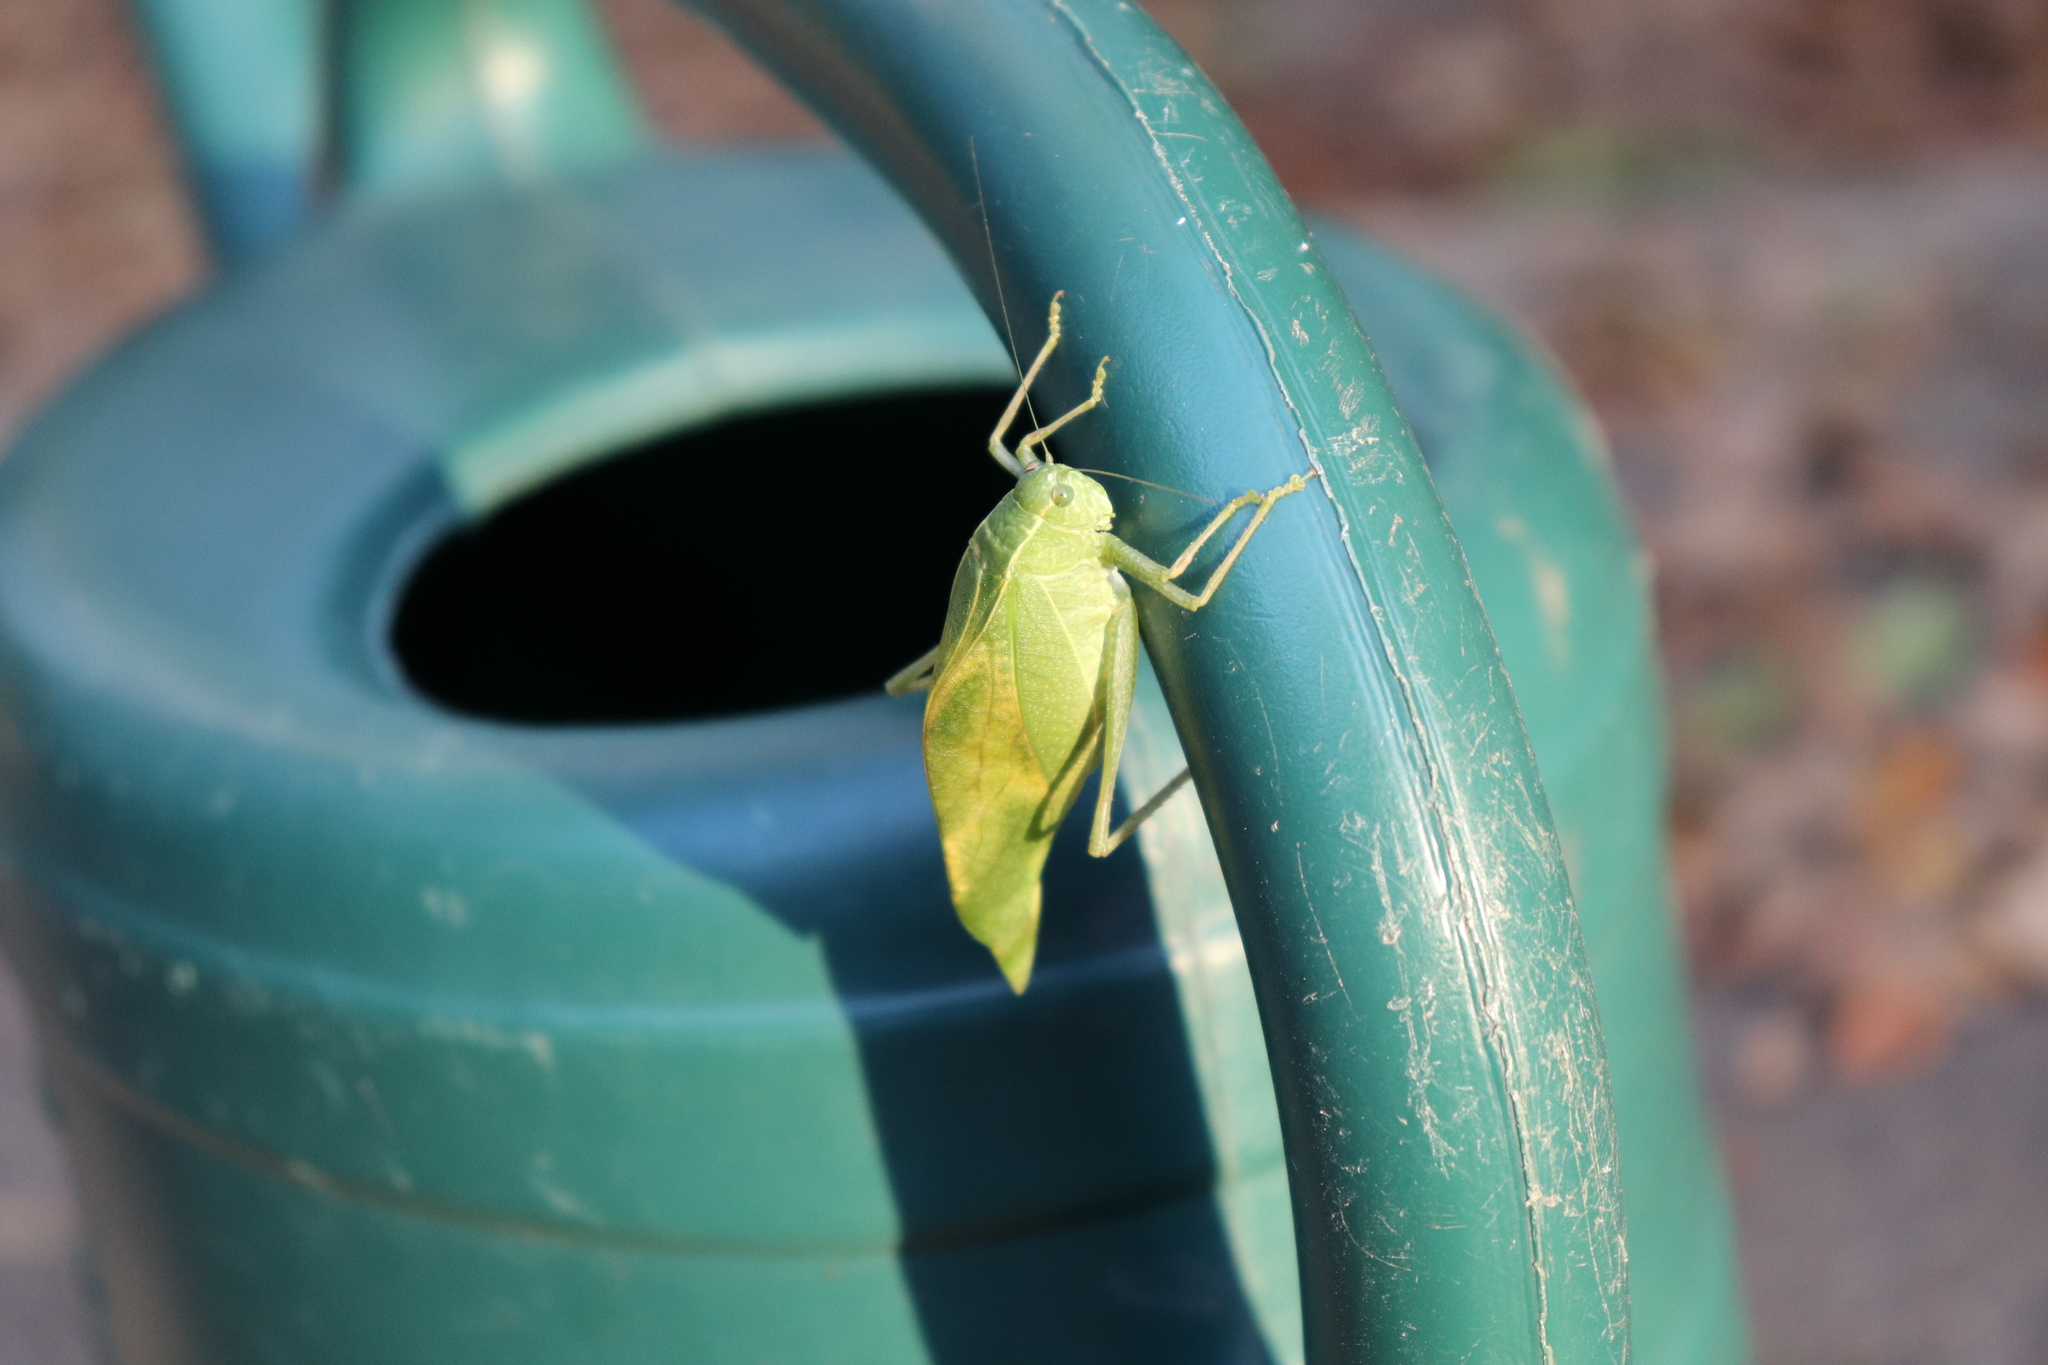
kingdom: Animalia
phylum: Arthropoda
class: Insecta
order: Orthoptera
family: Tettigoniidae
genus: Microcentrum
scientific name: Microcentrum rhombifolium
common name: Broad-winged katydid
